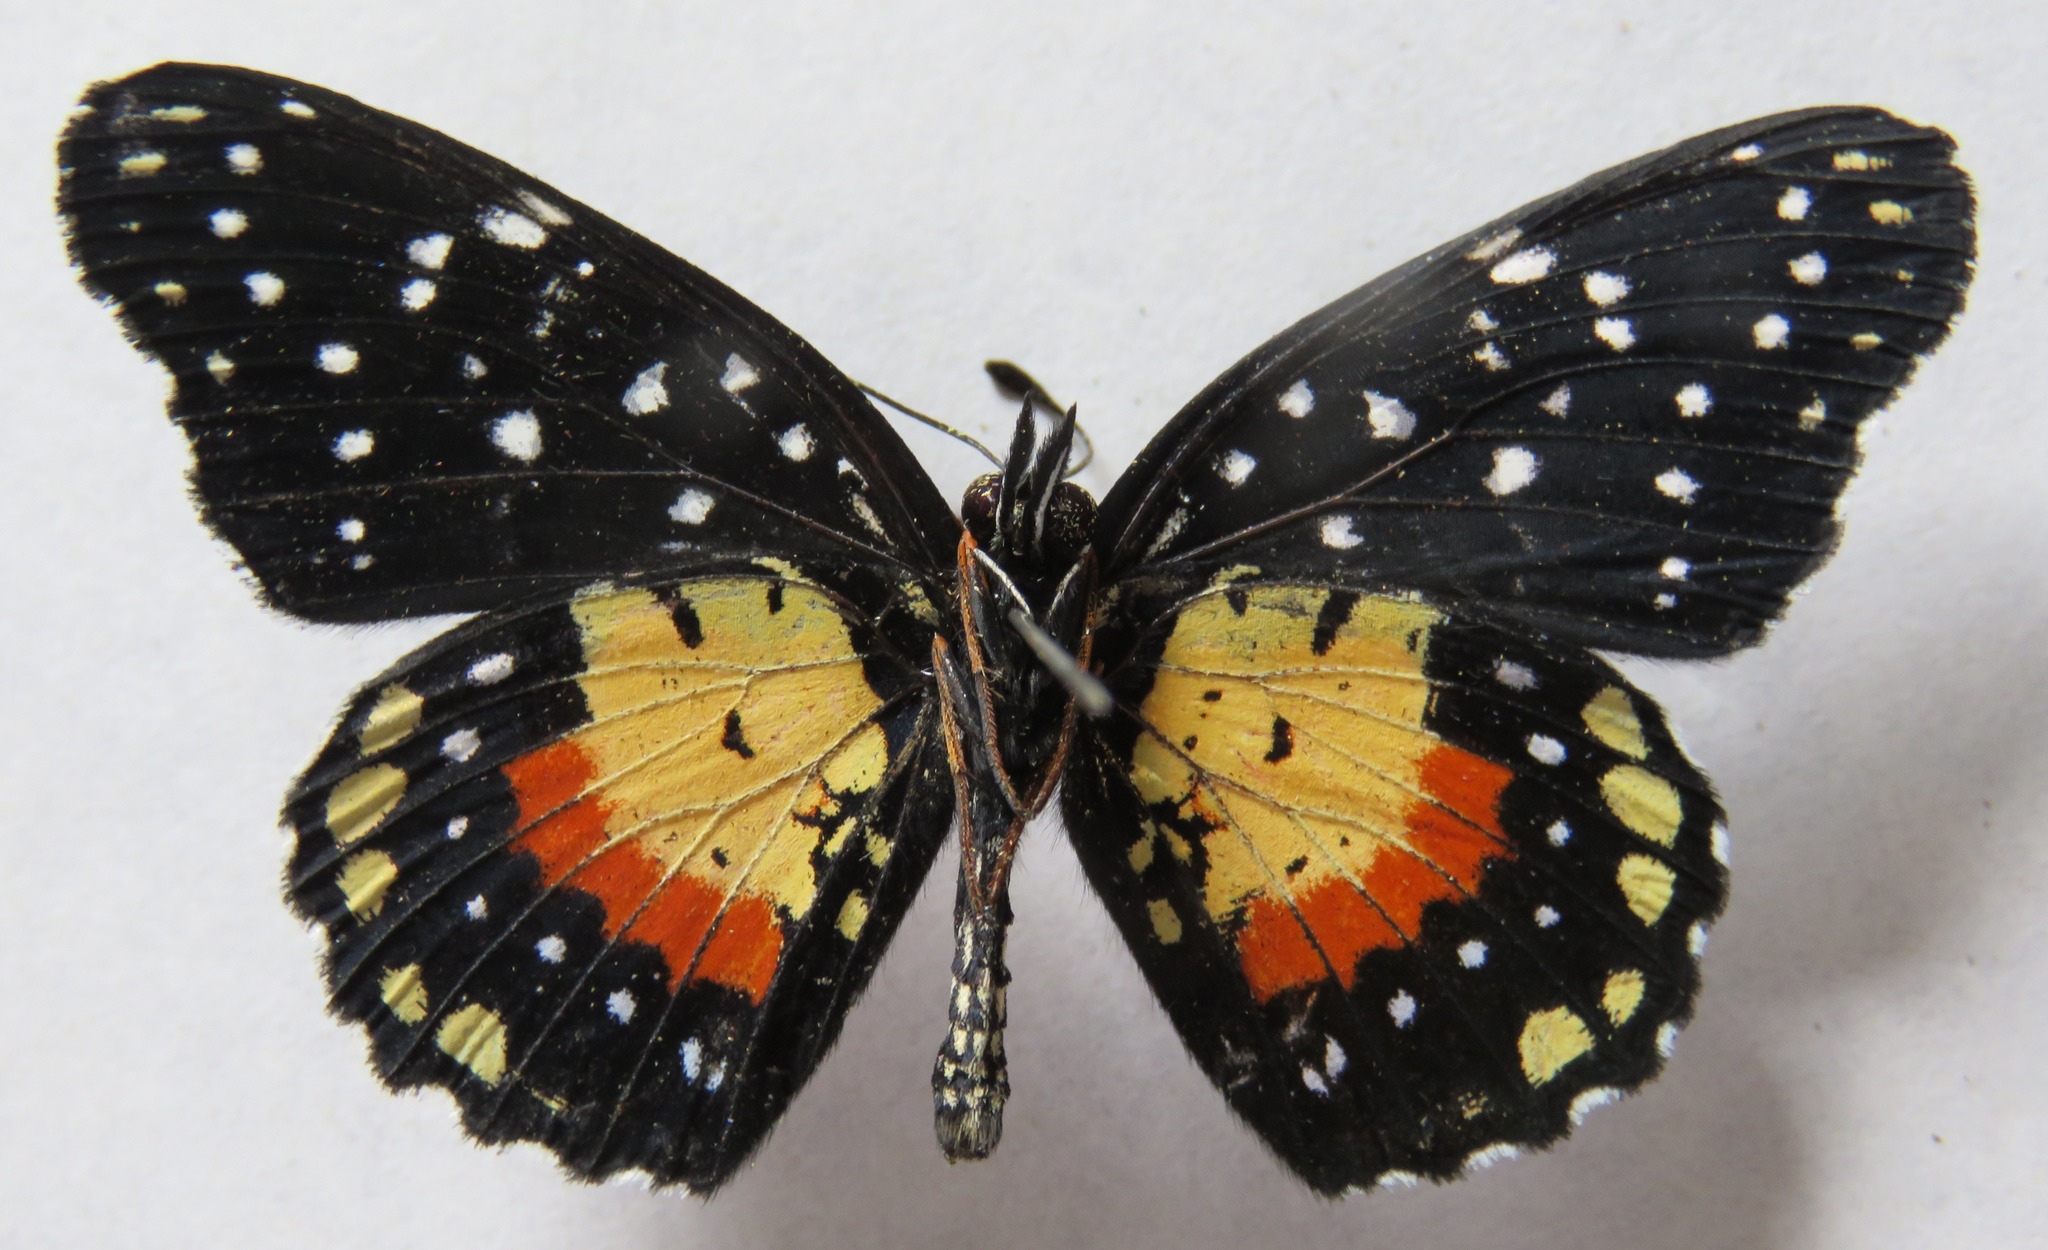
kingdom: Animalia
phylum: Arthropoda
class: Insecta
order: Lepidoptera
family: Nymphalidae
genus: Chlosyne
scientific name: Chlosyne janais
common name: Crimson patch
